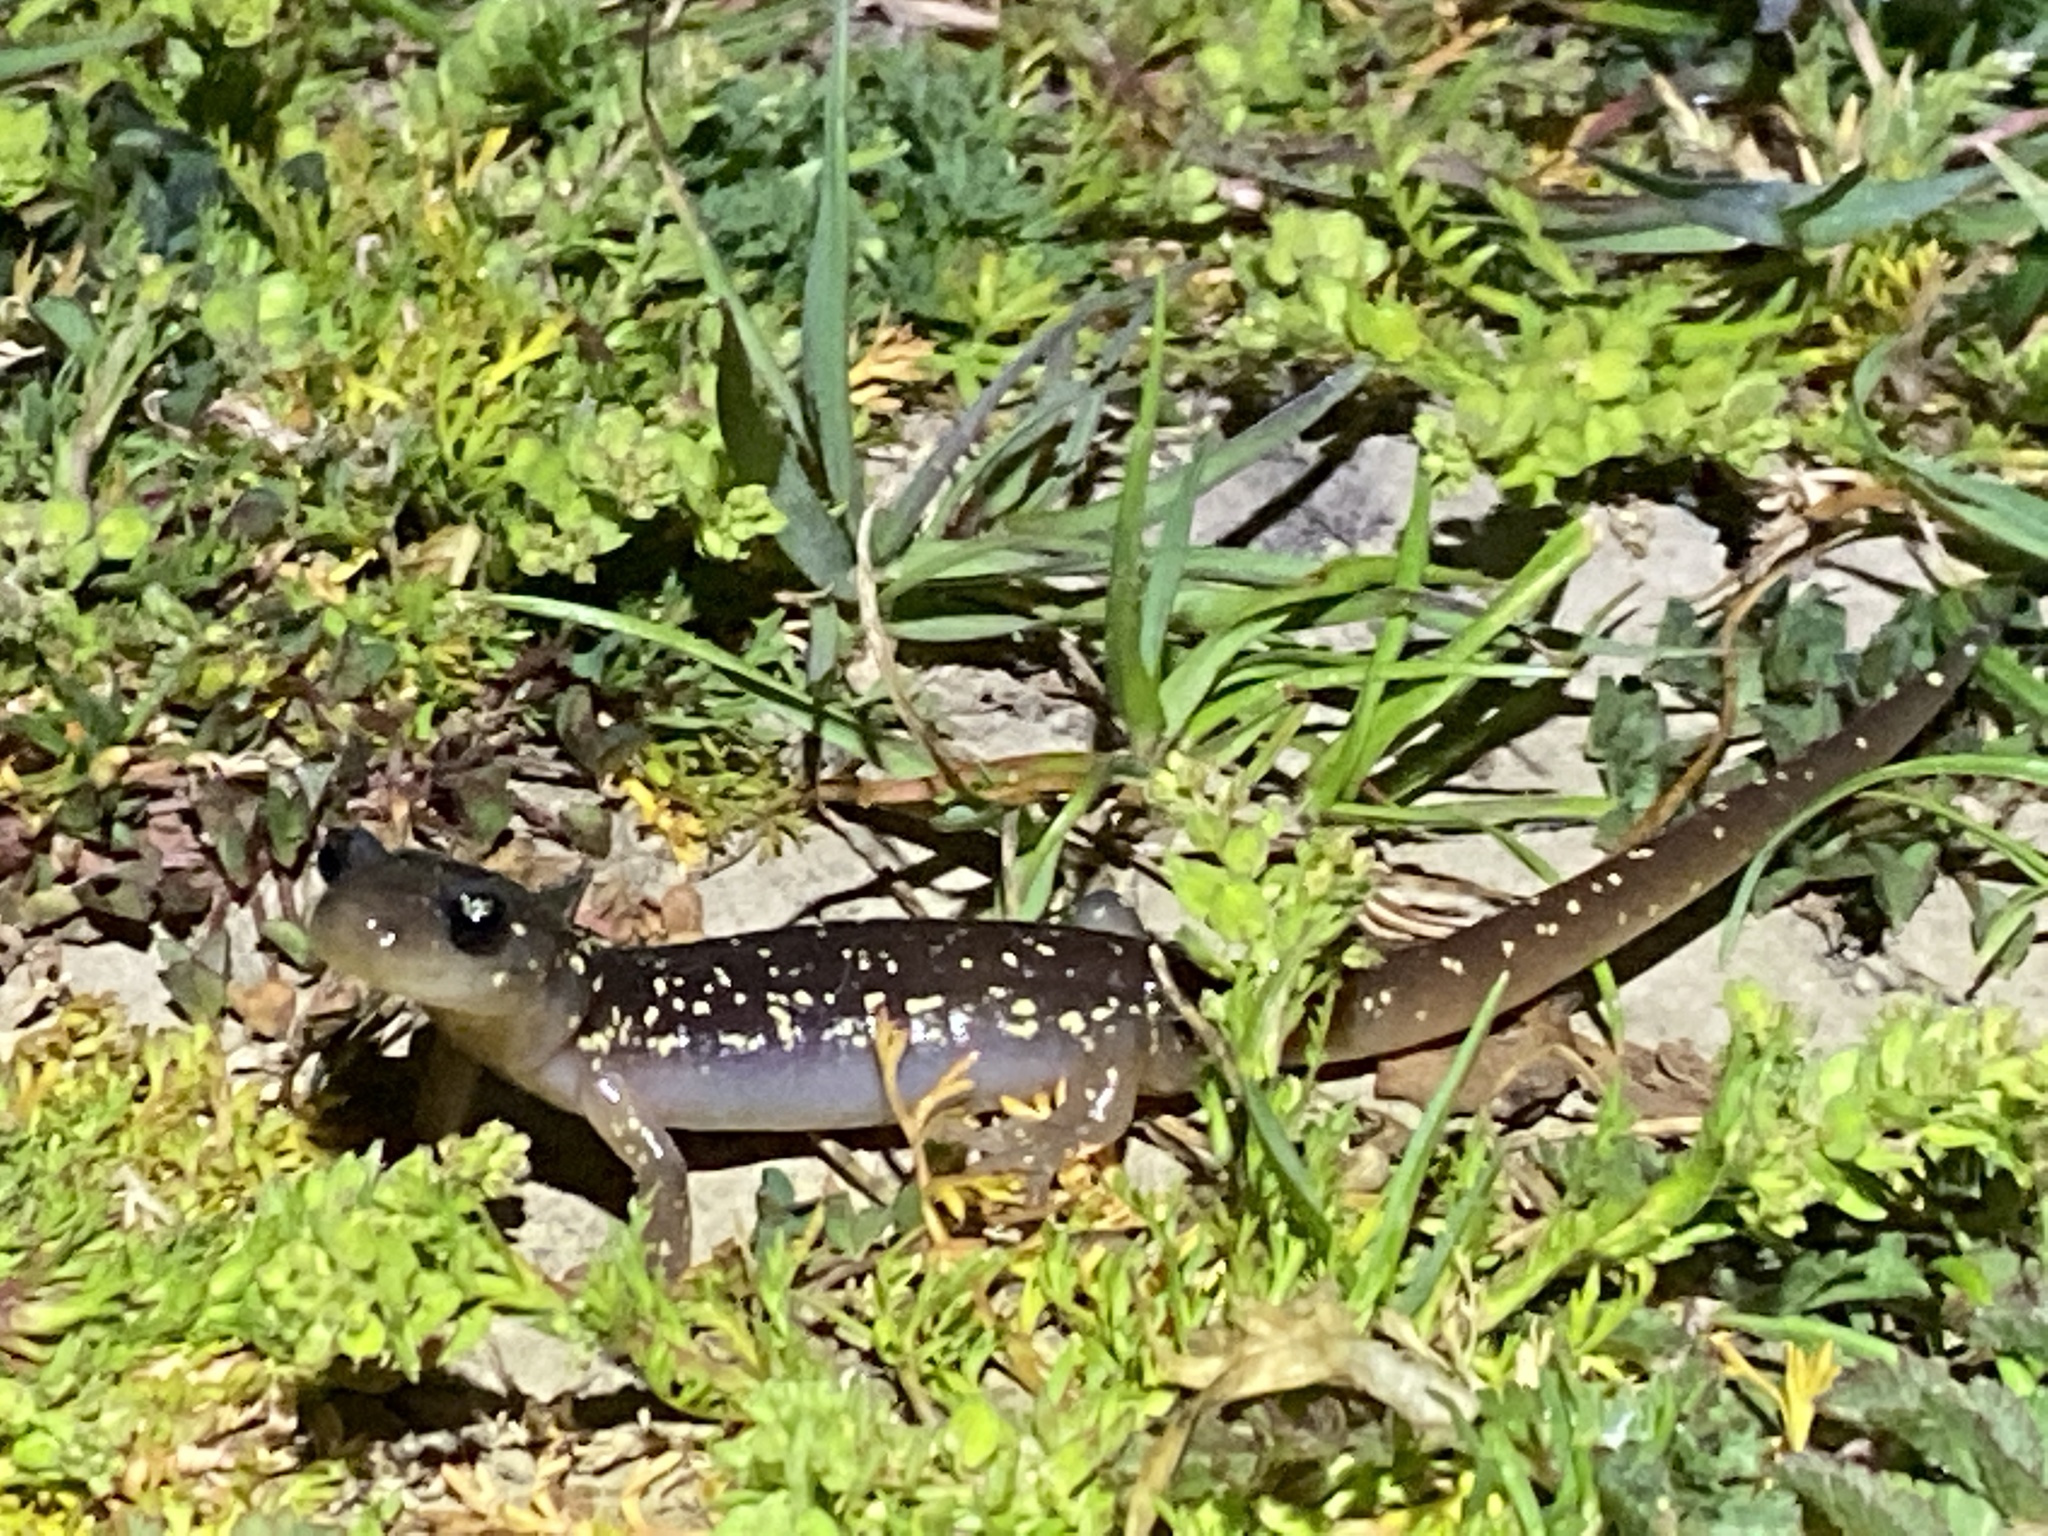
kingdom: Animalia
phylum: Chordata
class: Amphibia
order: Caudata
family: Plethodontidae
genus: Aneides
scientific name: Aneides lugubris
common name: Arboreal salamander
